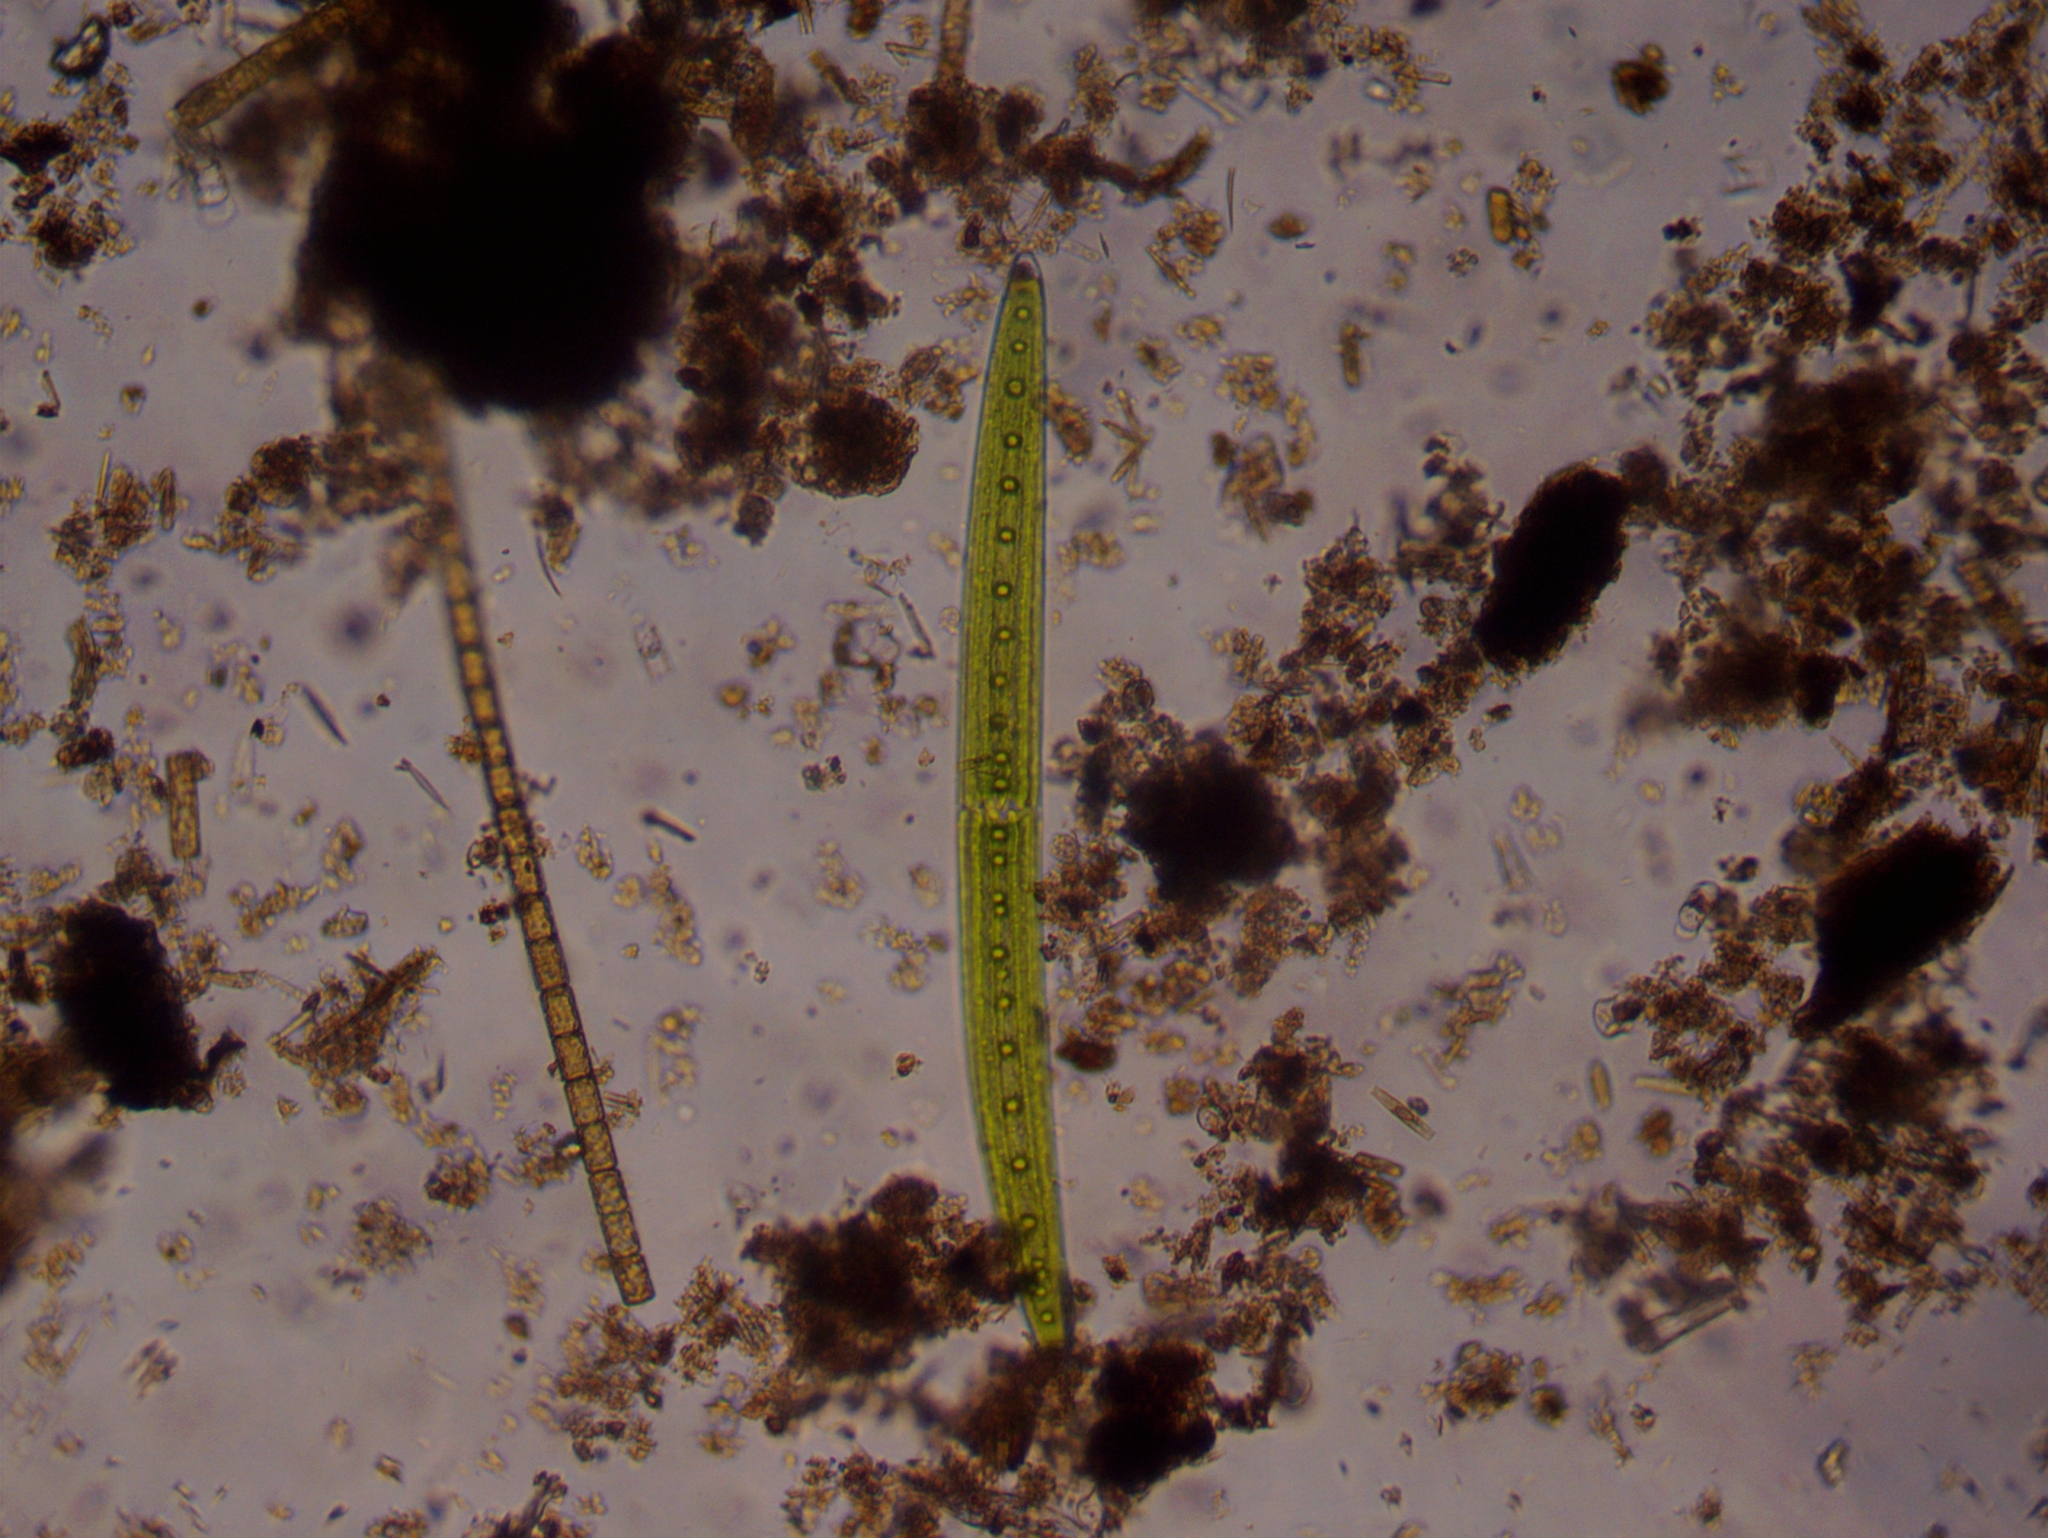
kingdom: Plantae
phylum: Charophyta
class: Zygnematophyceae
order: Zygnematales
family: Closteriaceae
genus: Closterium
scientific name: Closterium acerosum
